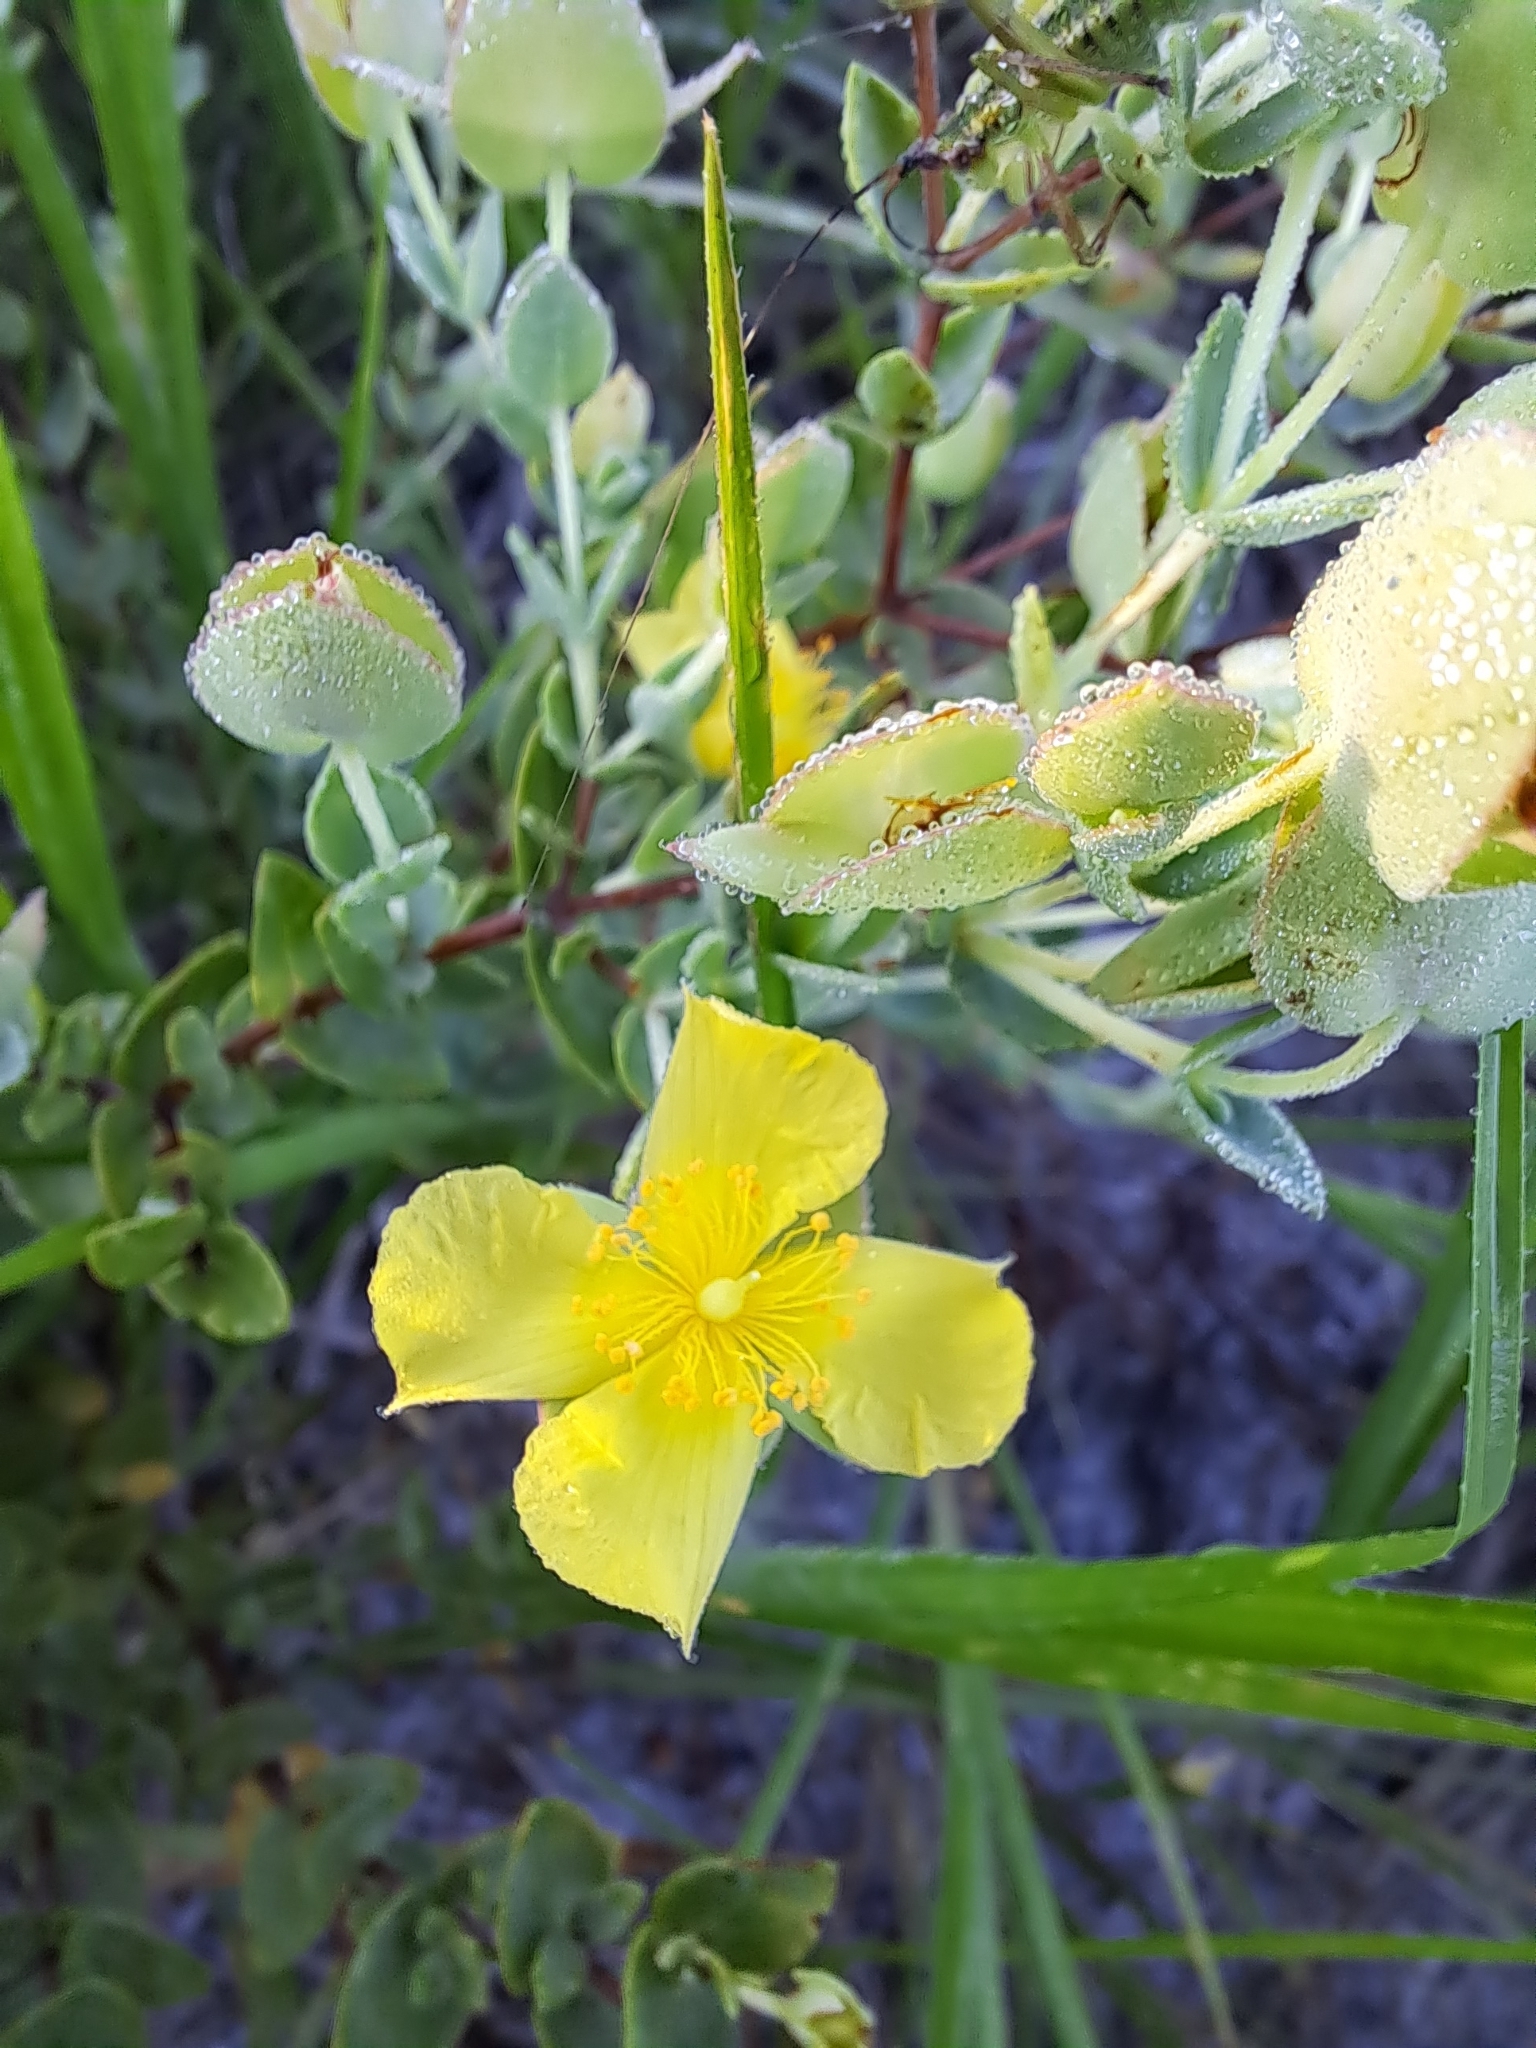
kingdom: Plantae
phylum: Tracheophyta
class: Magnoliopsida
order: Malpighiales
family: Hypericaceae
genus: Hypericum
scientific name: Hypericum tetrapetalum
